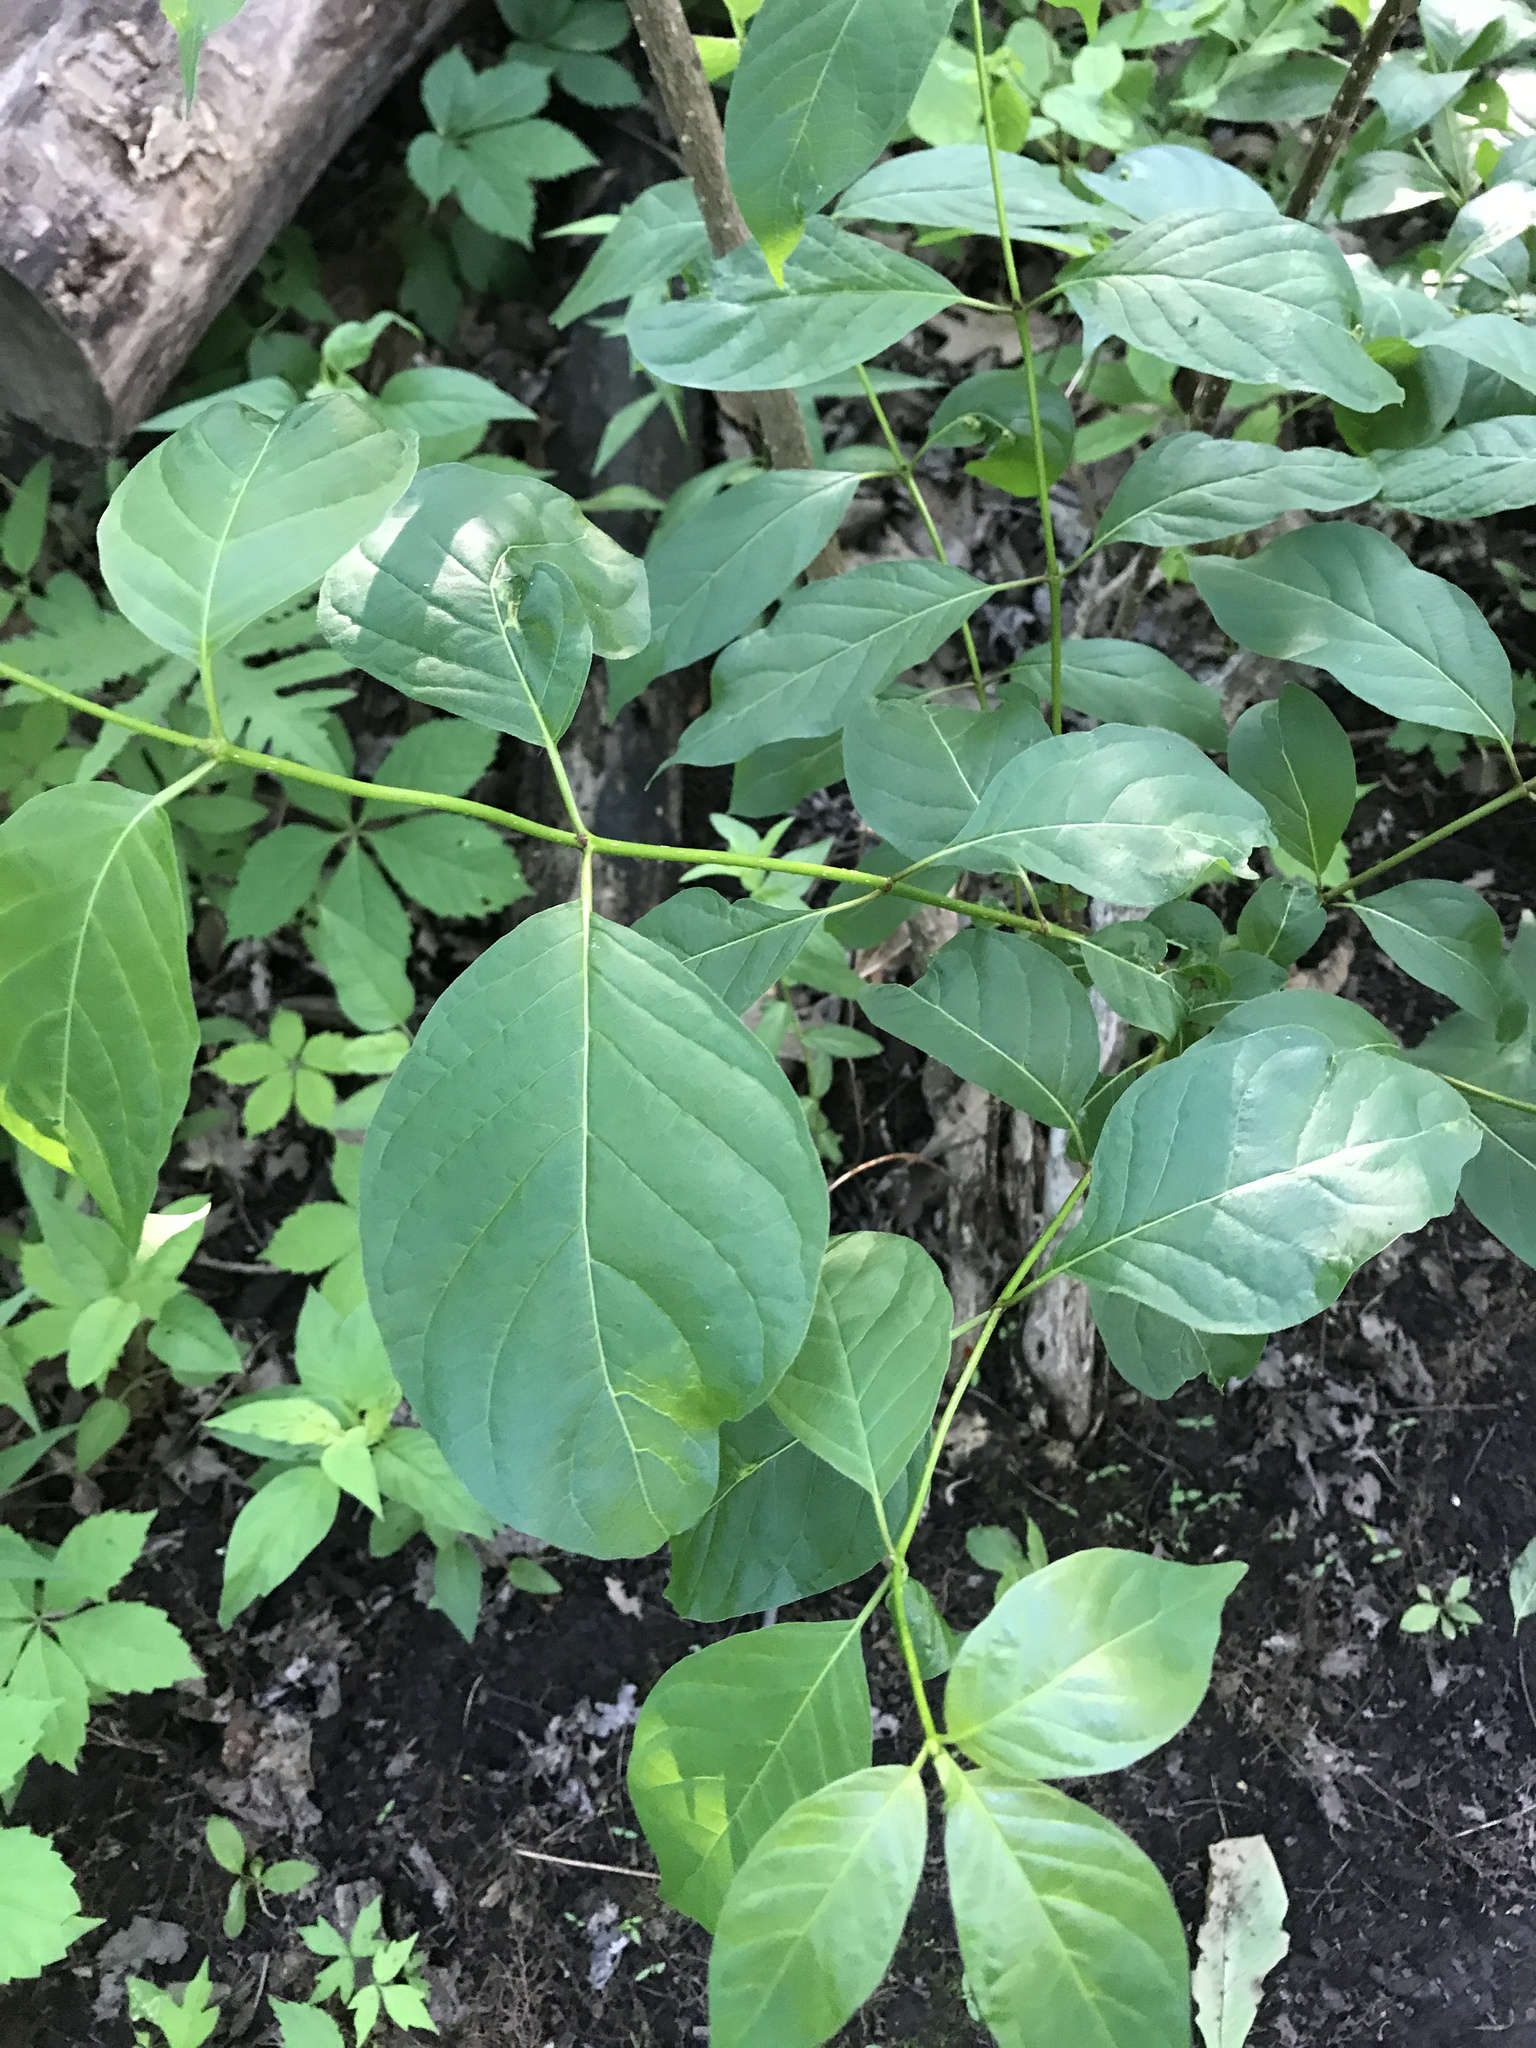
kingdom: Plantae
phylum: Tracheophyta
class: Magnoliopsida
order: Gentianales
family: Rubiaceae
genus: Cephalanthus
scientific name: Cephalanthus occidentalis
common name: Button-willow
